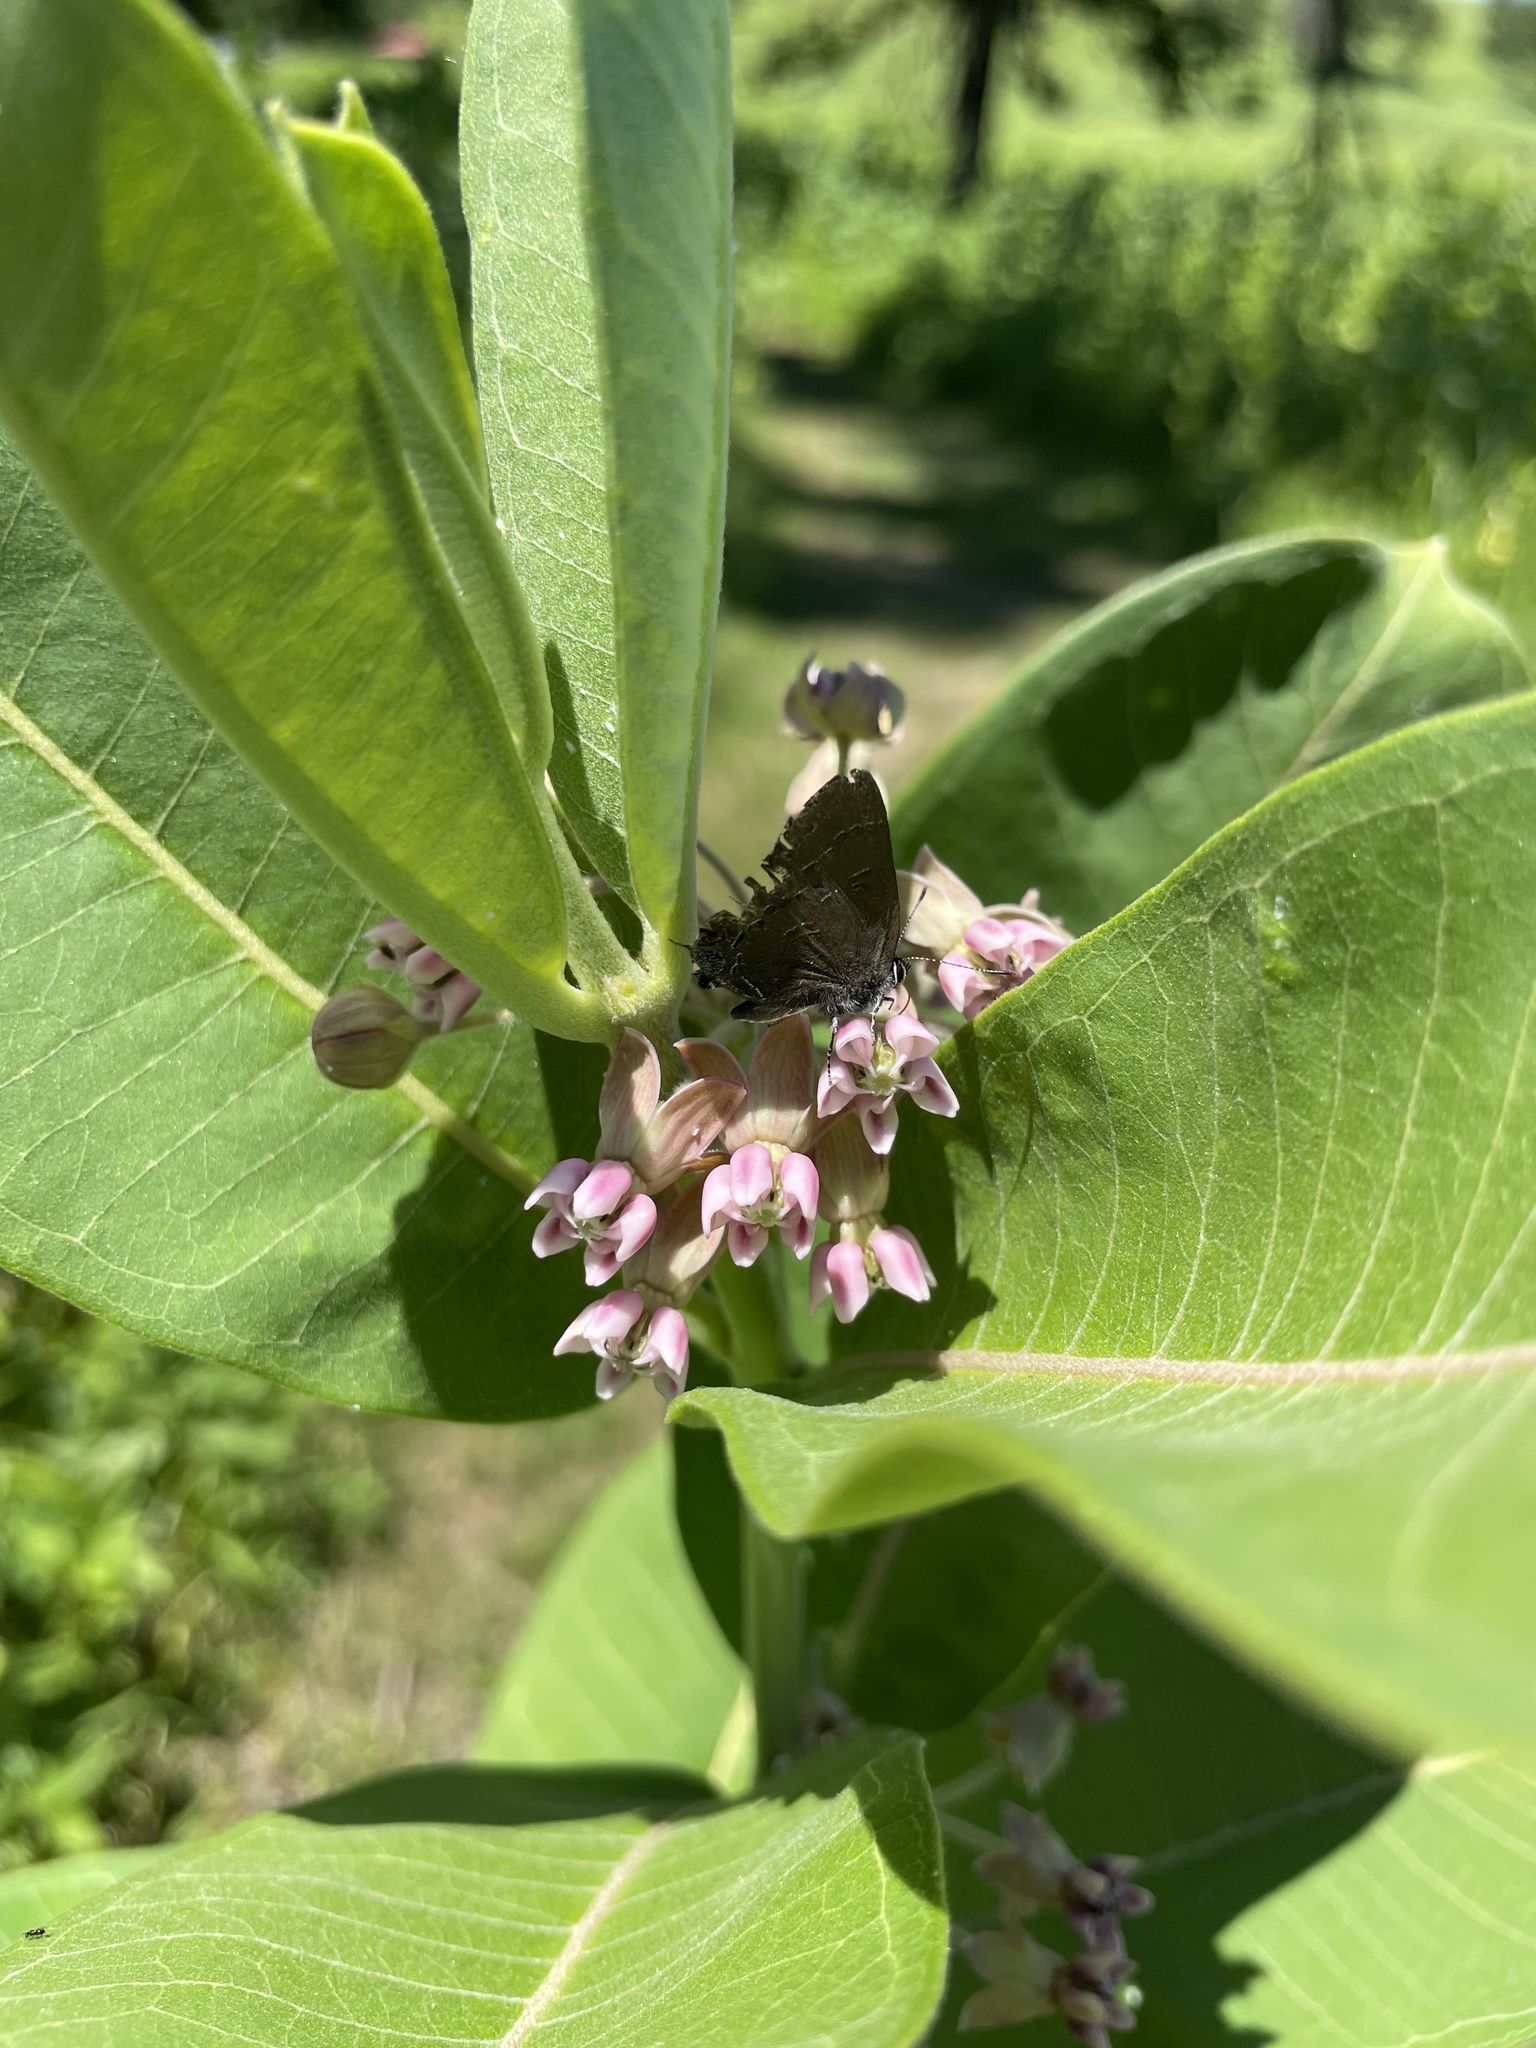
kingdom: Animalia
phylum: Arthropoda
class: Insecta
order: Lepidoptera
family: Lycaenidae
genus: Satyrium
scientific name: Satyrium calanus
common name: Banded hairstreak
